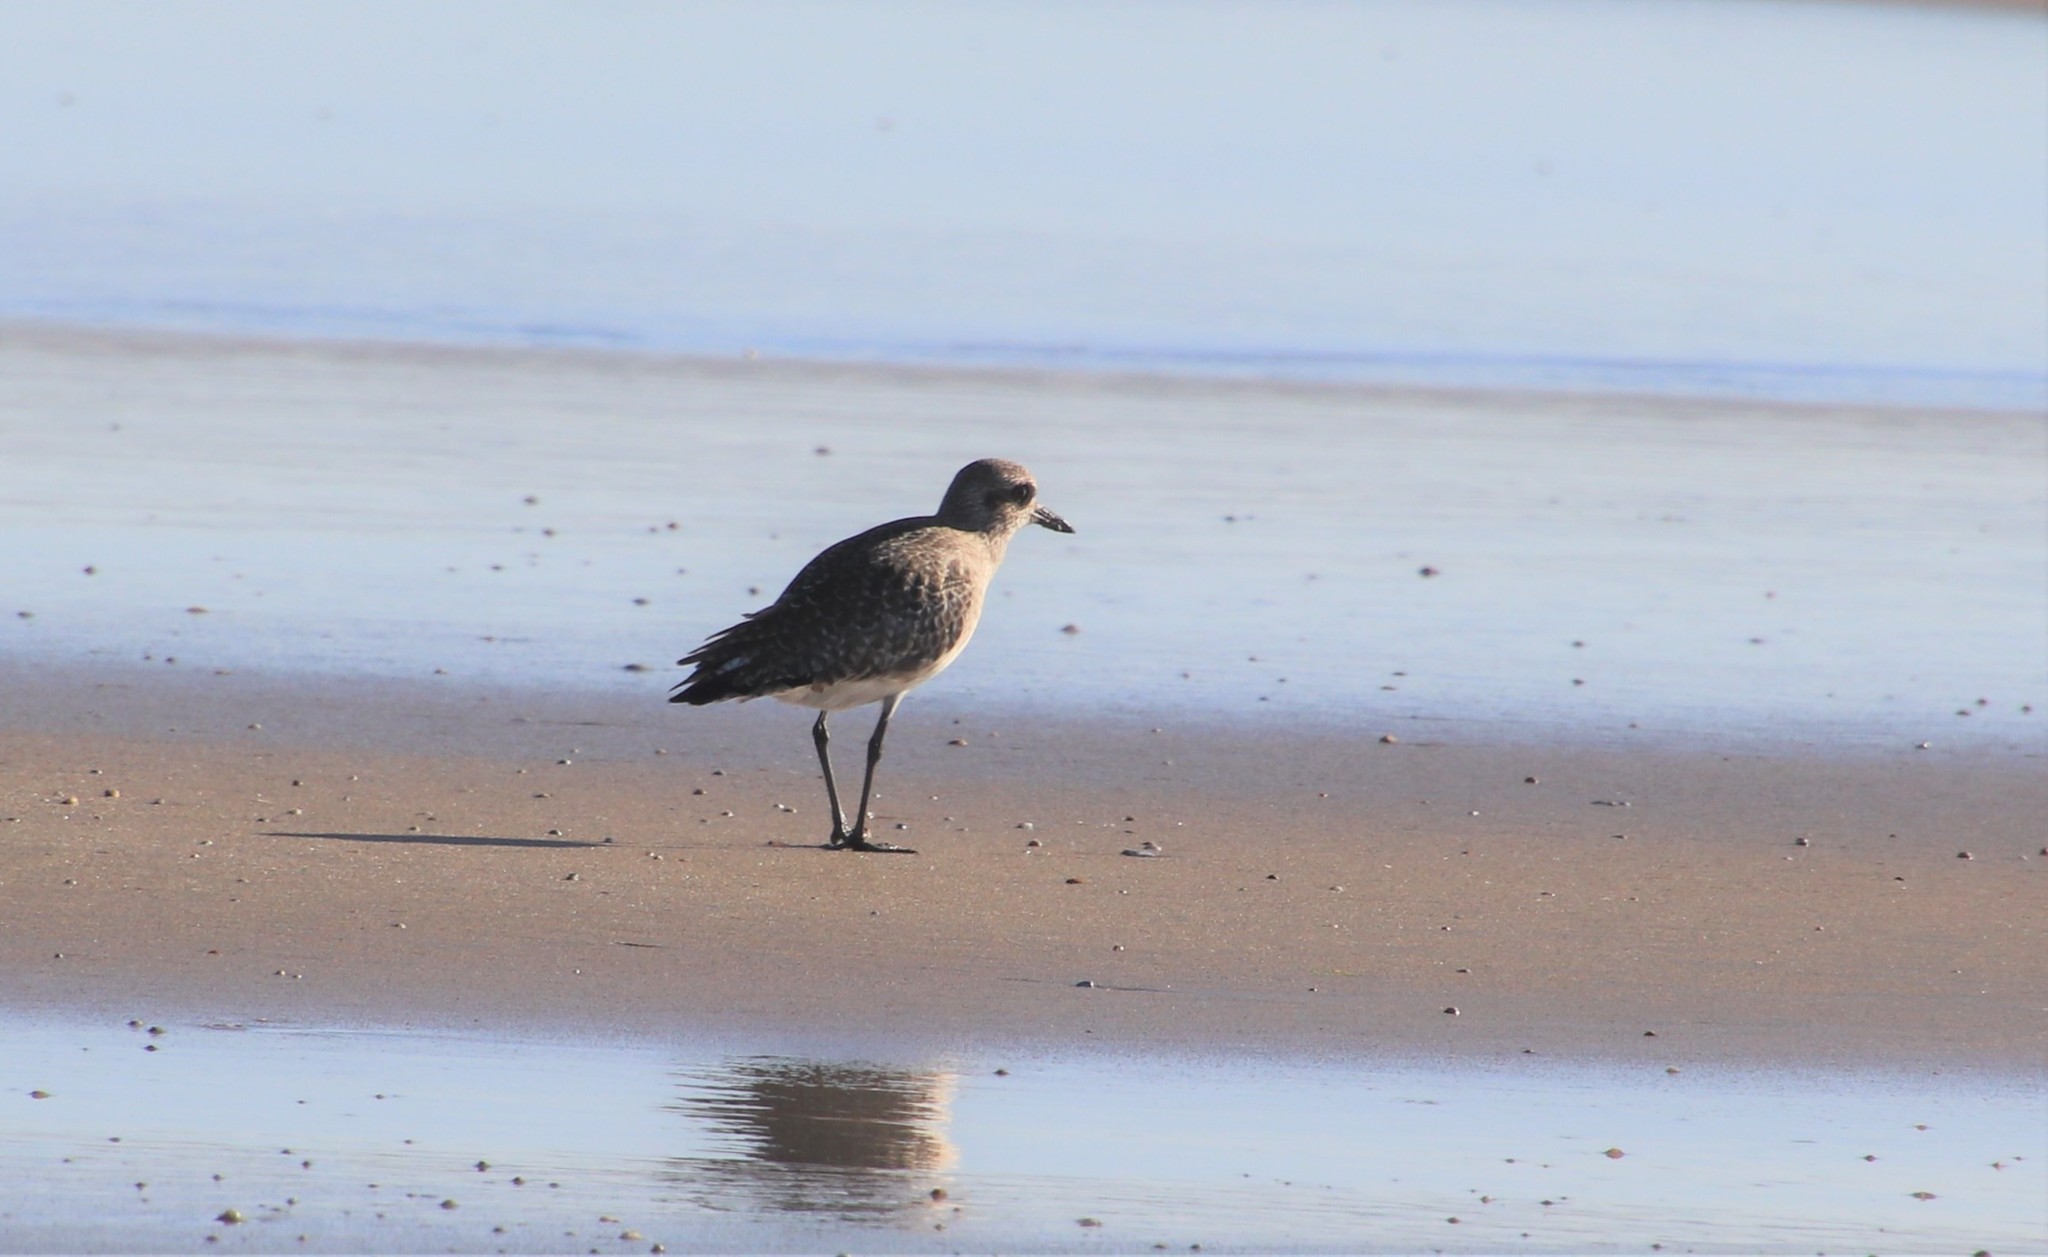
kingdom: Animalia
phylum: Chordata
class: Aves
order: Charadriiformes
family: Charadriidae
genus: Pluvialis
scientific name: Pluvialis squatarola
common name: Grey plover
